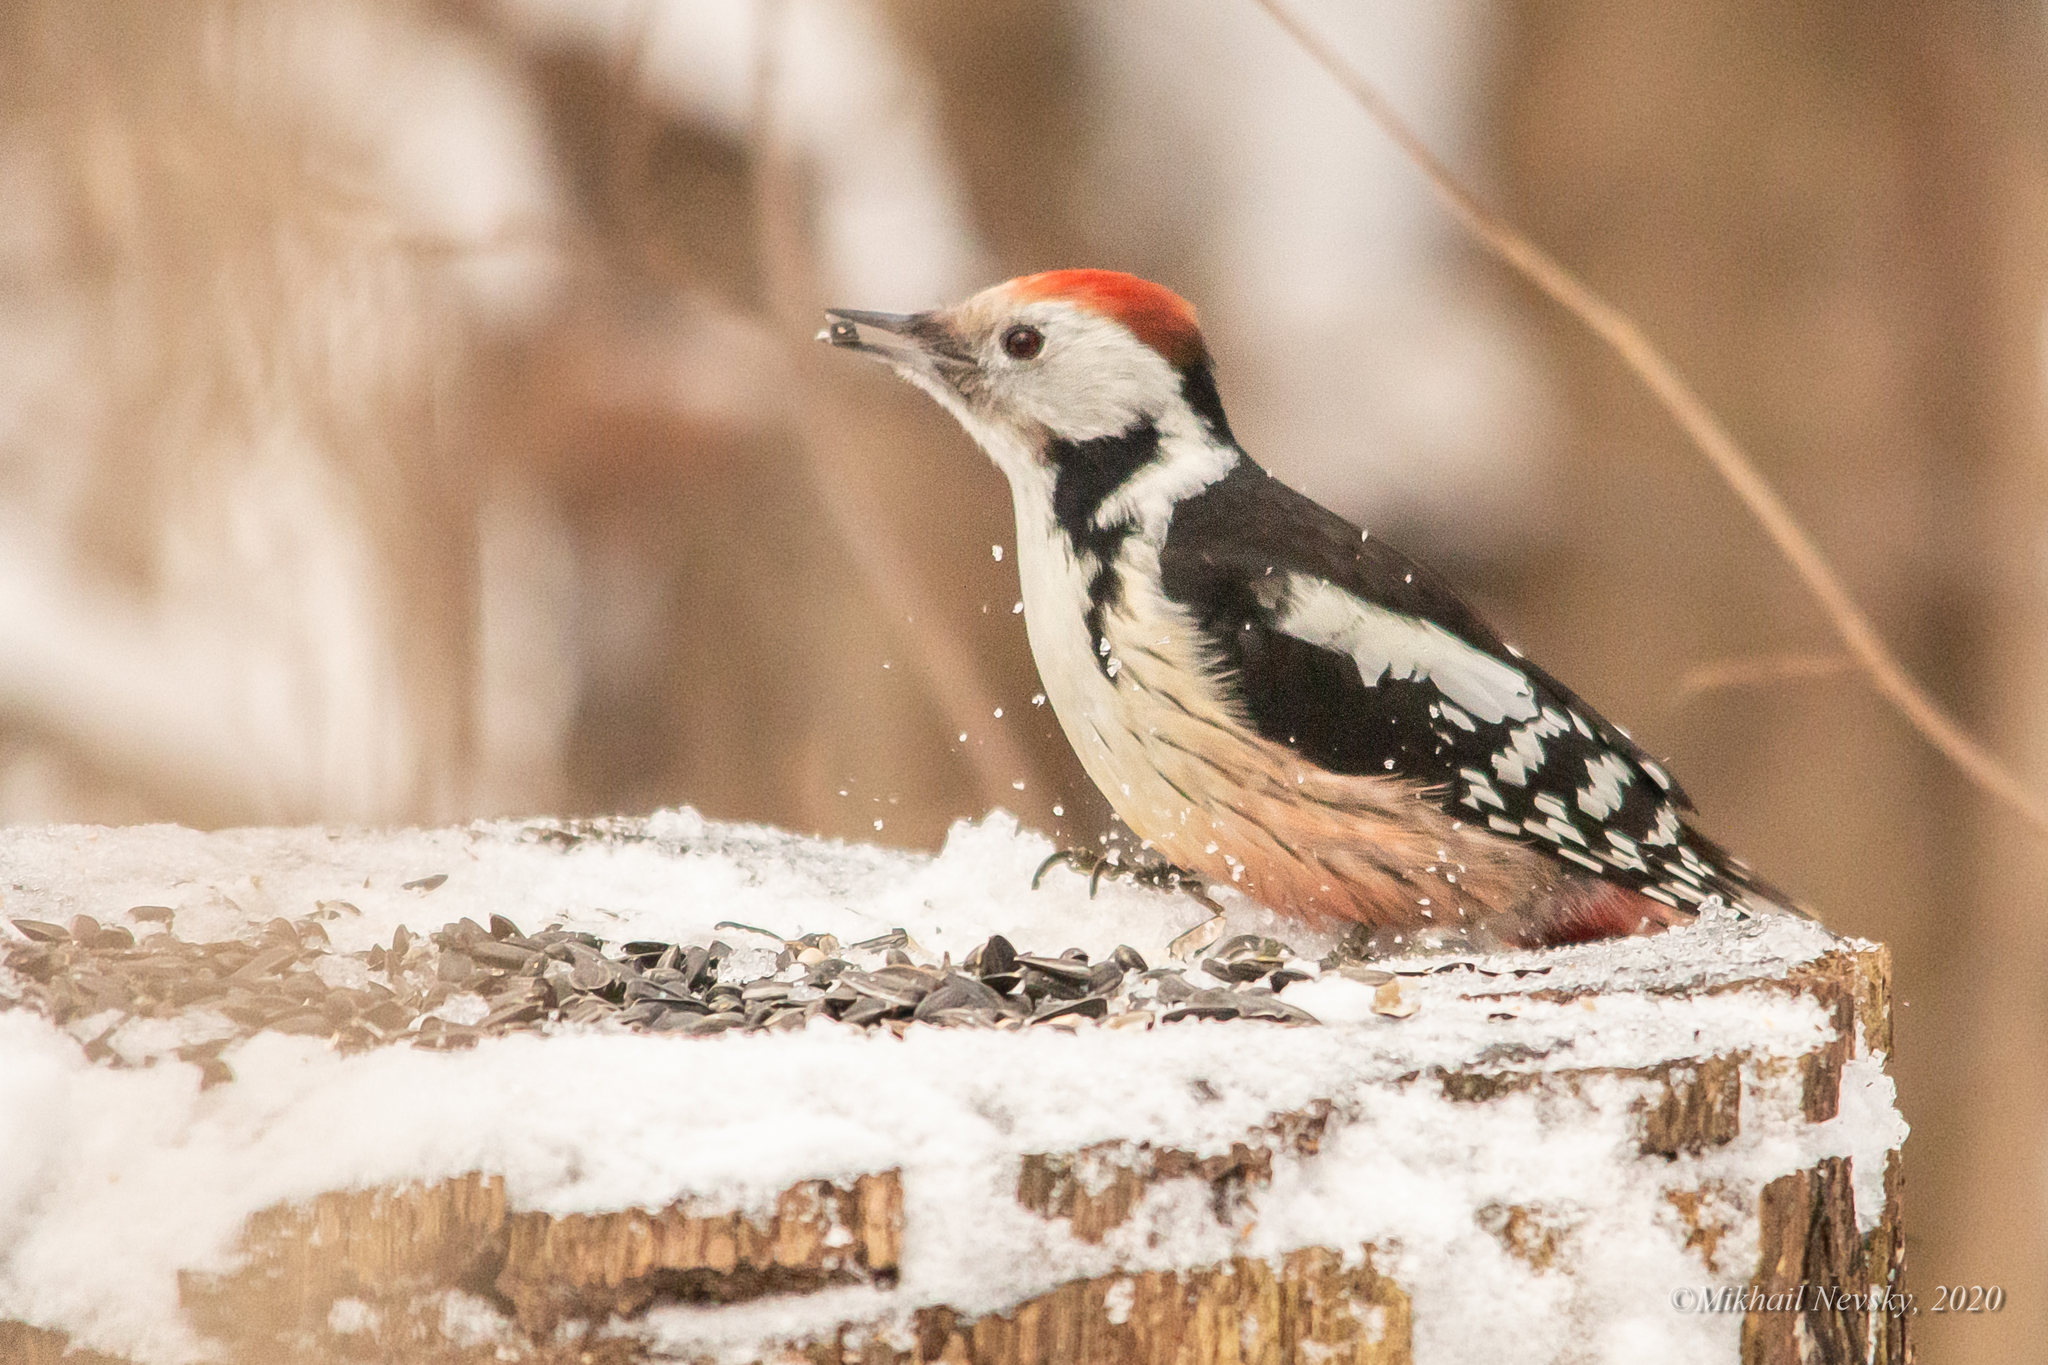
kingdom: Animalia
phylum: Chordata
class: Aves
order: Piciformes
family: Picidae
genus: Dendrocoptes
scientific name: Dendrocoptes medius
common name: Middle spotted woodpecker
